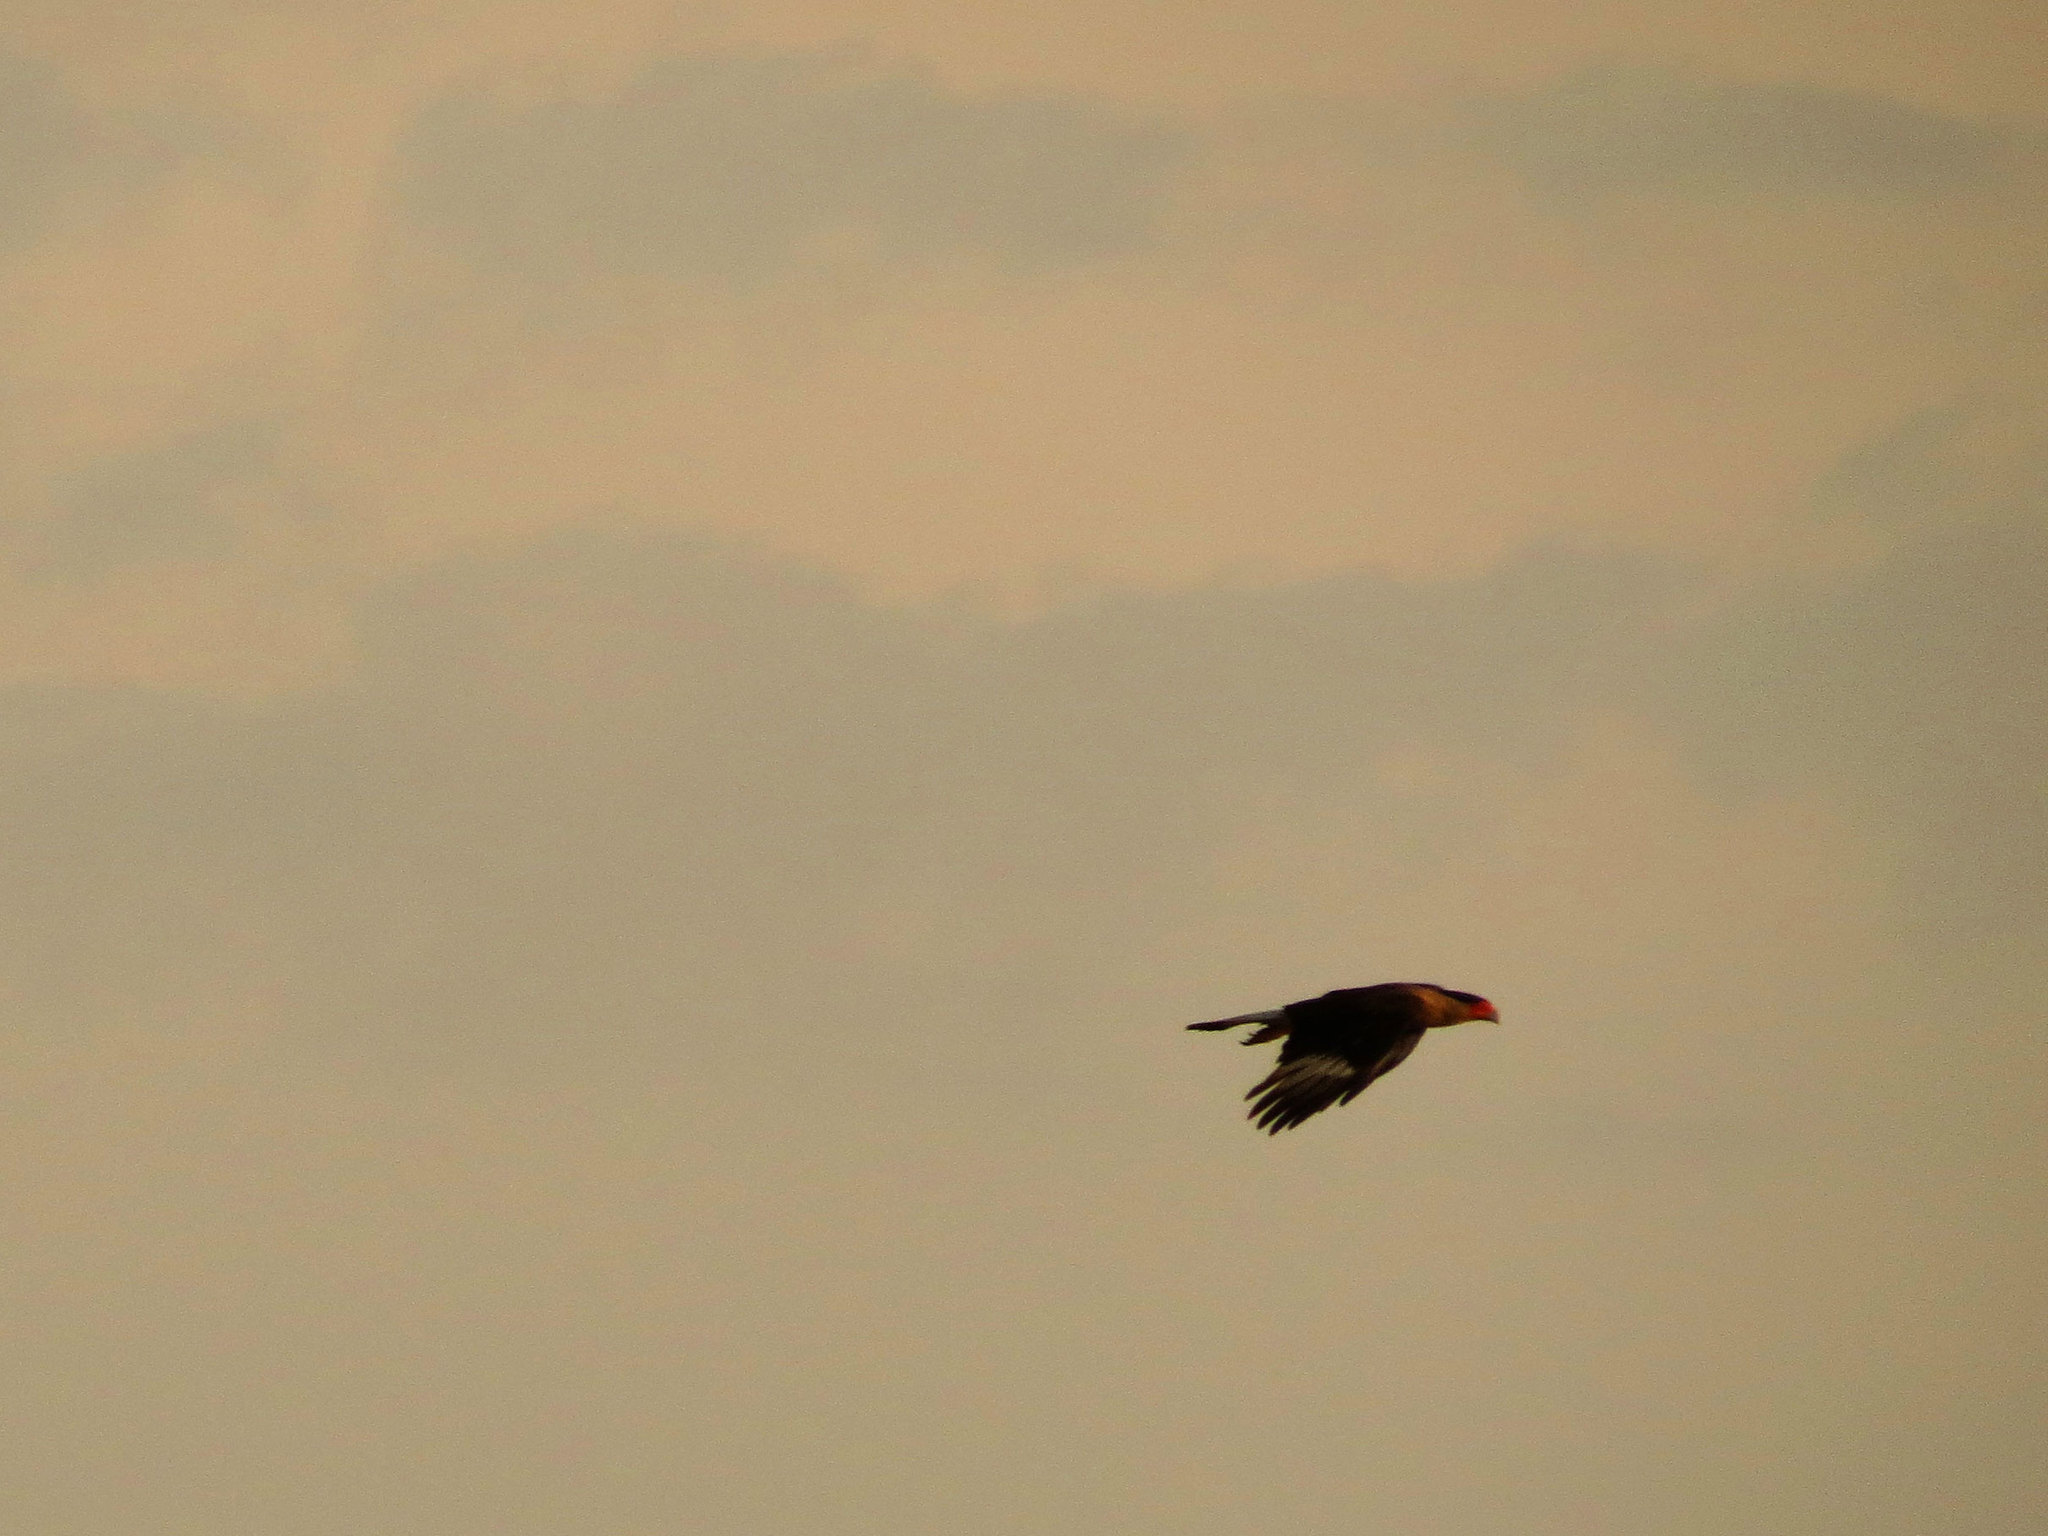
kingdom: Animalia
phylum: Chordata
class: Aves
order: Falconiformes
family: Falconidae
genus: Caracara
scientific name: Caracara plancus
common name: Southern caracara
